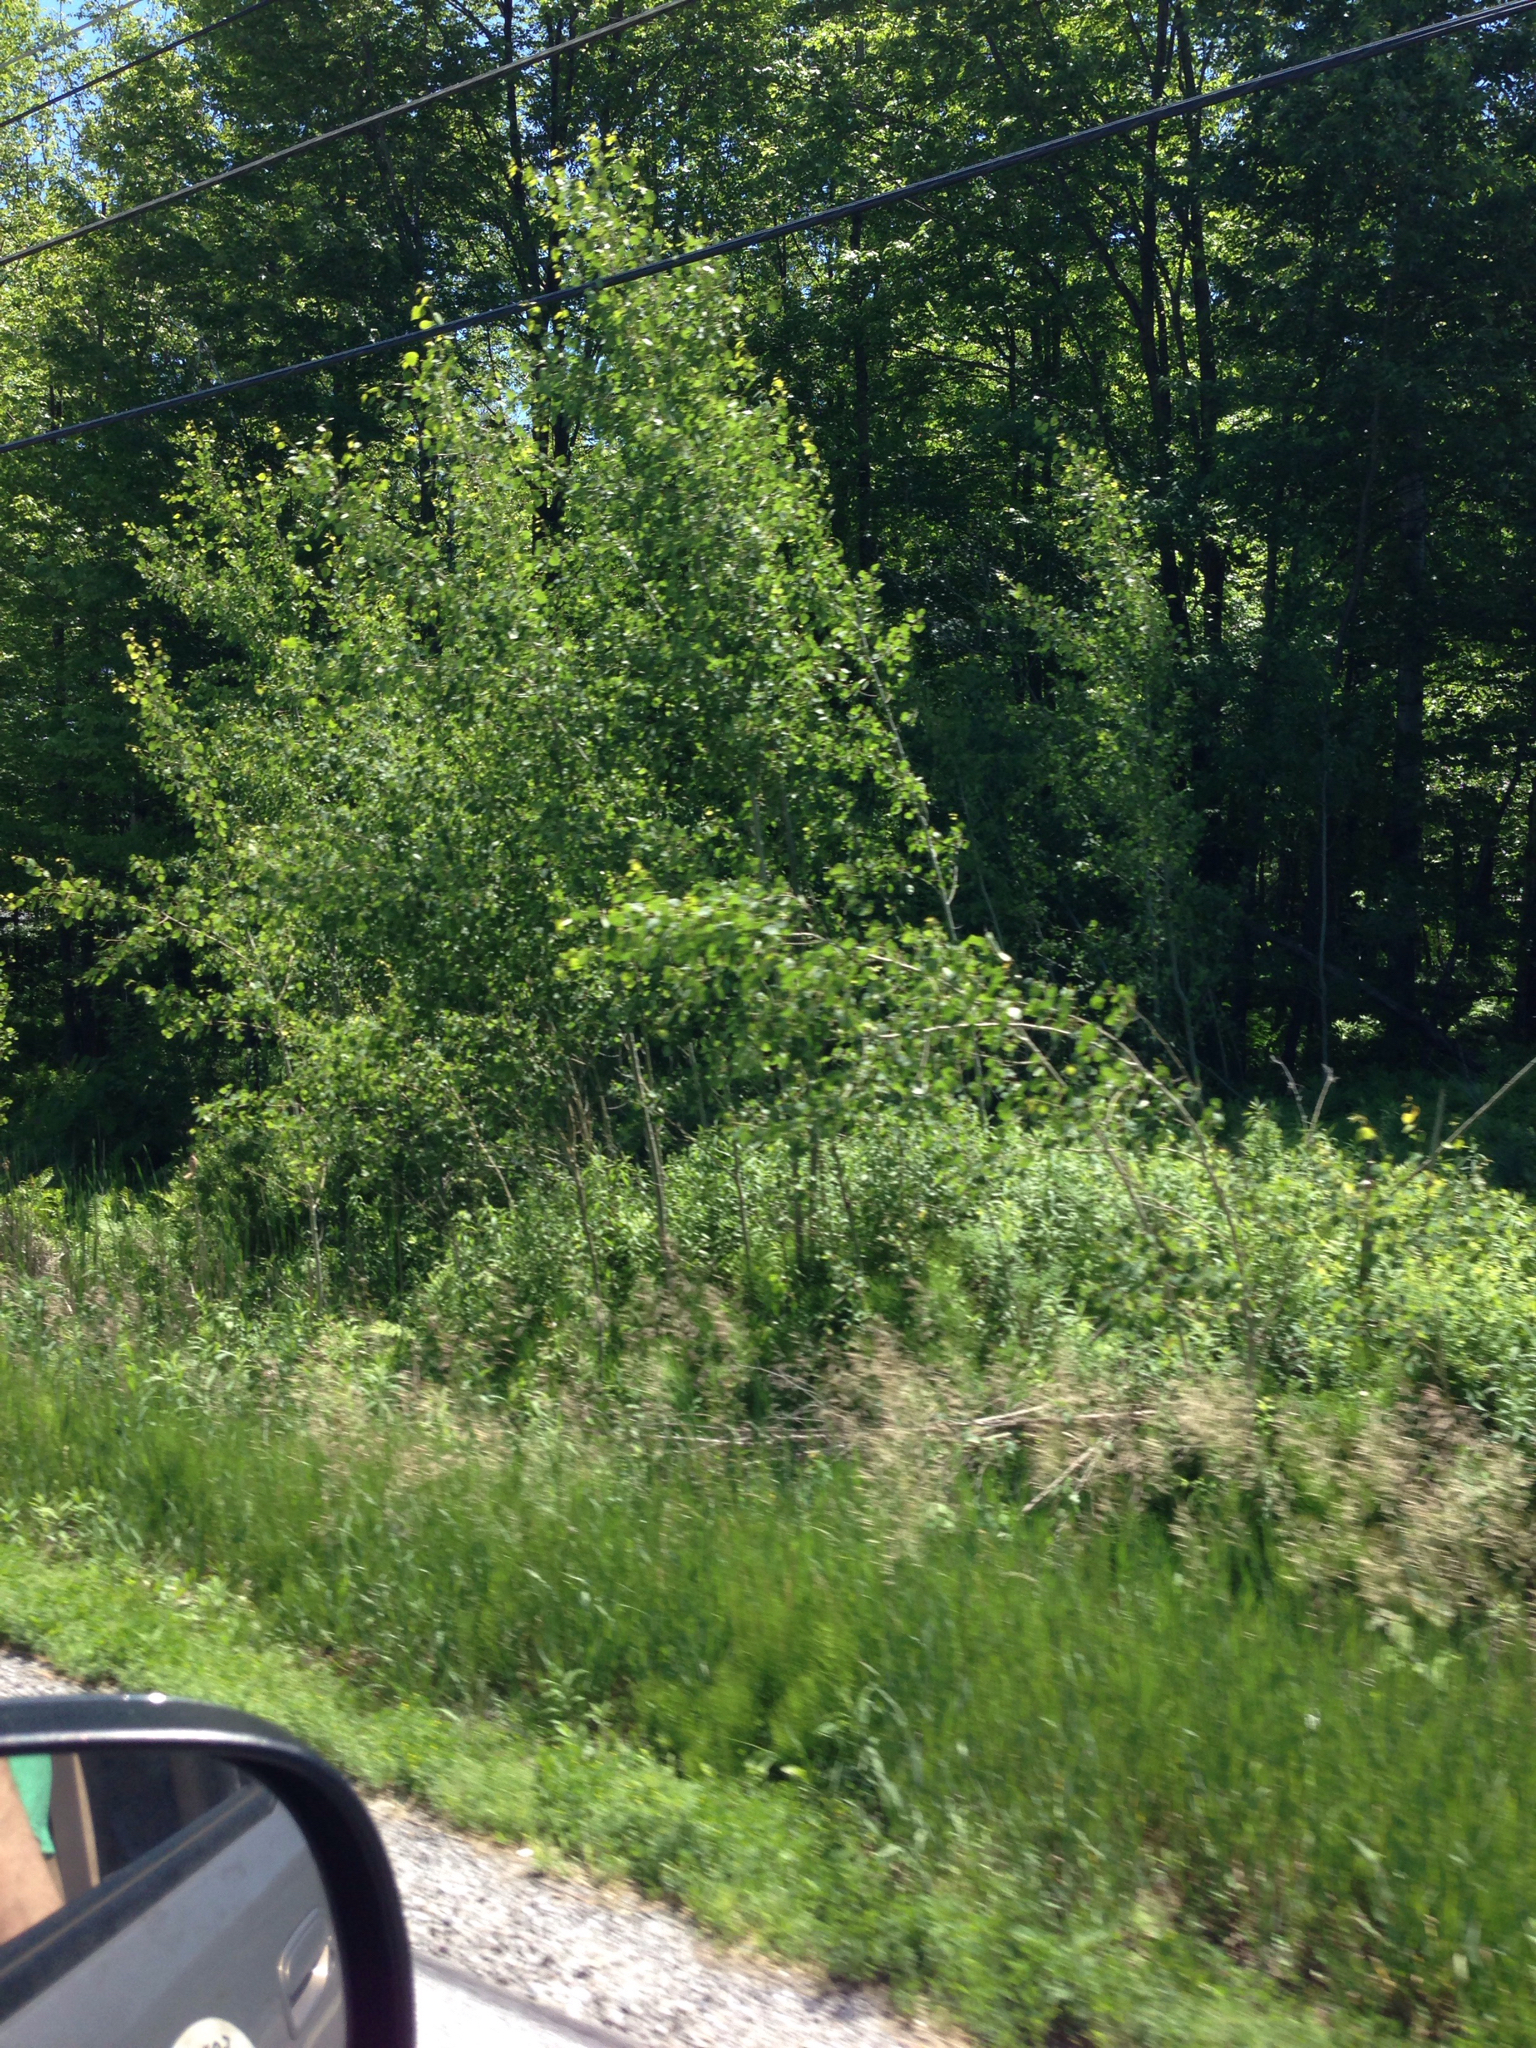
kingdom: Plantae
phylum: Tracheophyta
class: Magnoliopsida
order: Malpighiales
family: Salicaceae
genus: Populus
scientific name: Populus tremuloides
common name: Quaking aspen
